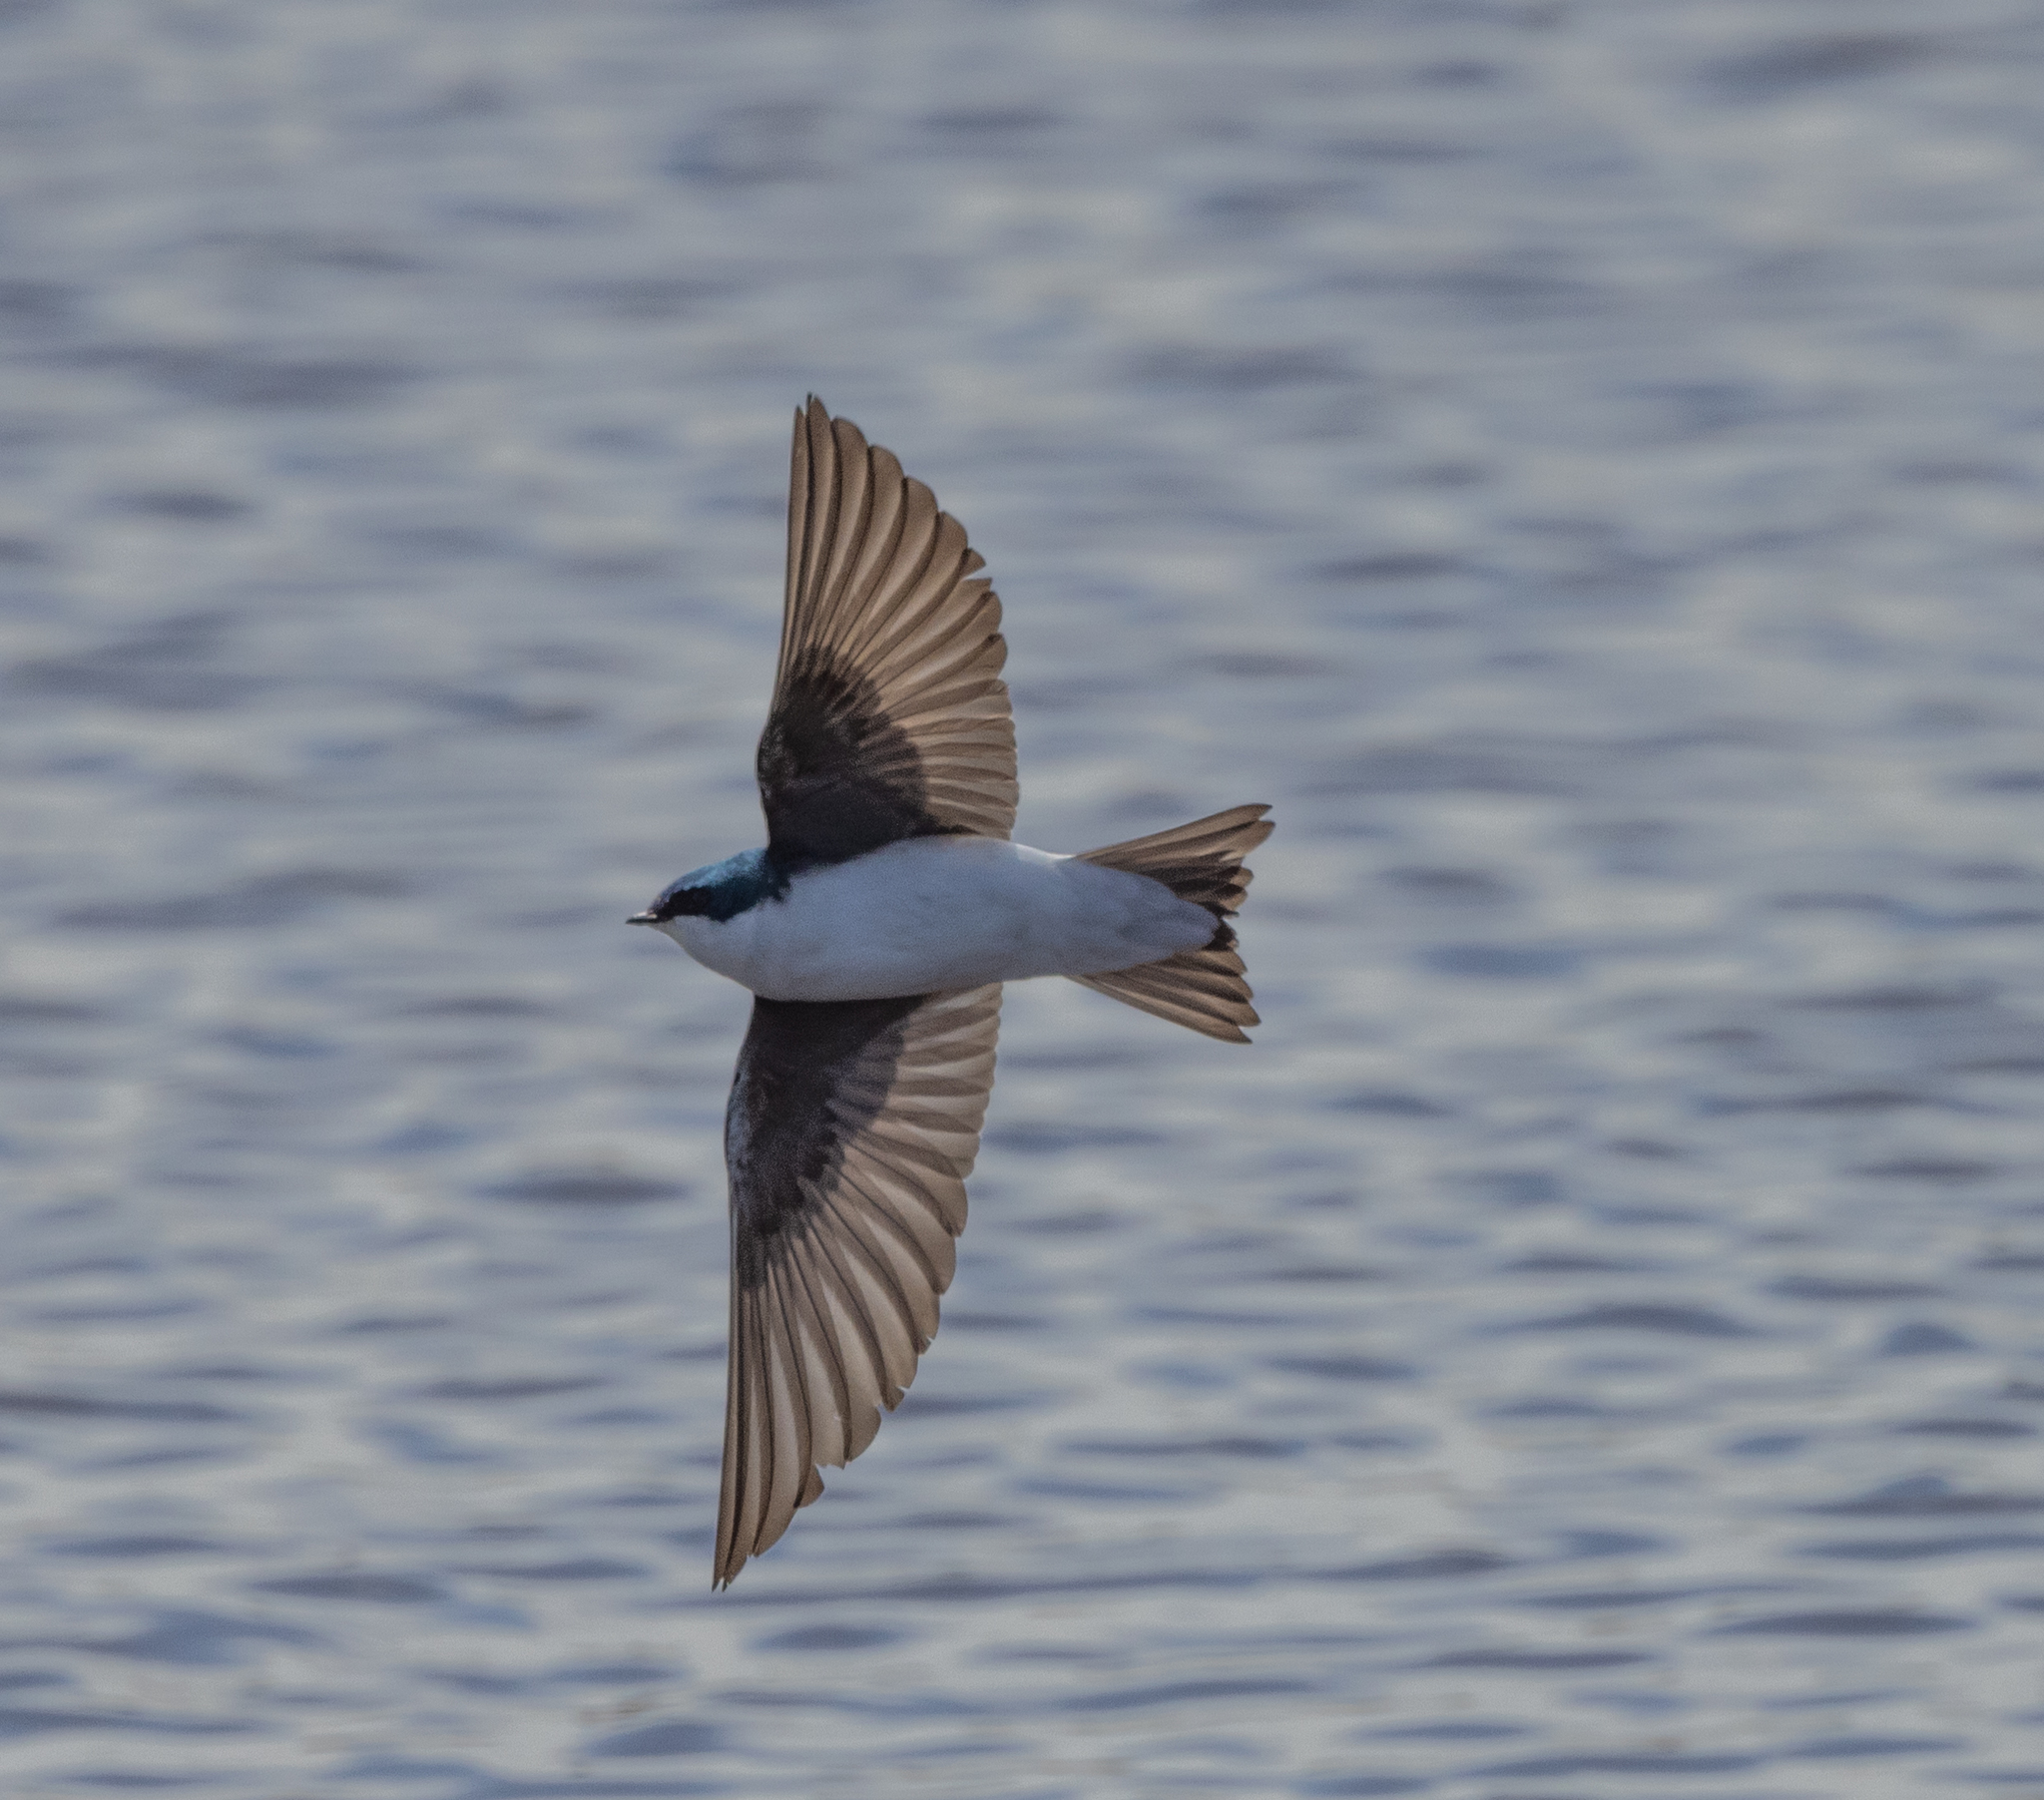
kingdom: Animalia
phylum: Chordata
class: Aves
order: Passeriformes
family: Hirundinidae
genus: Tachycineta
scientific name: Tachycineta bicolor
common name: Tree swallow
